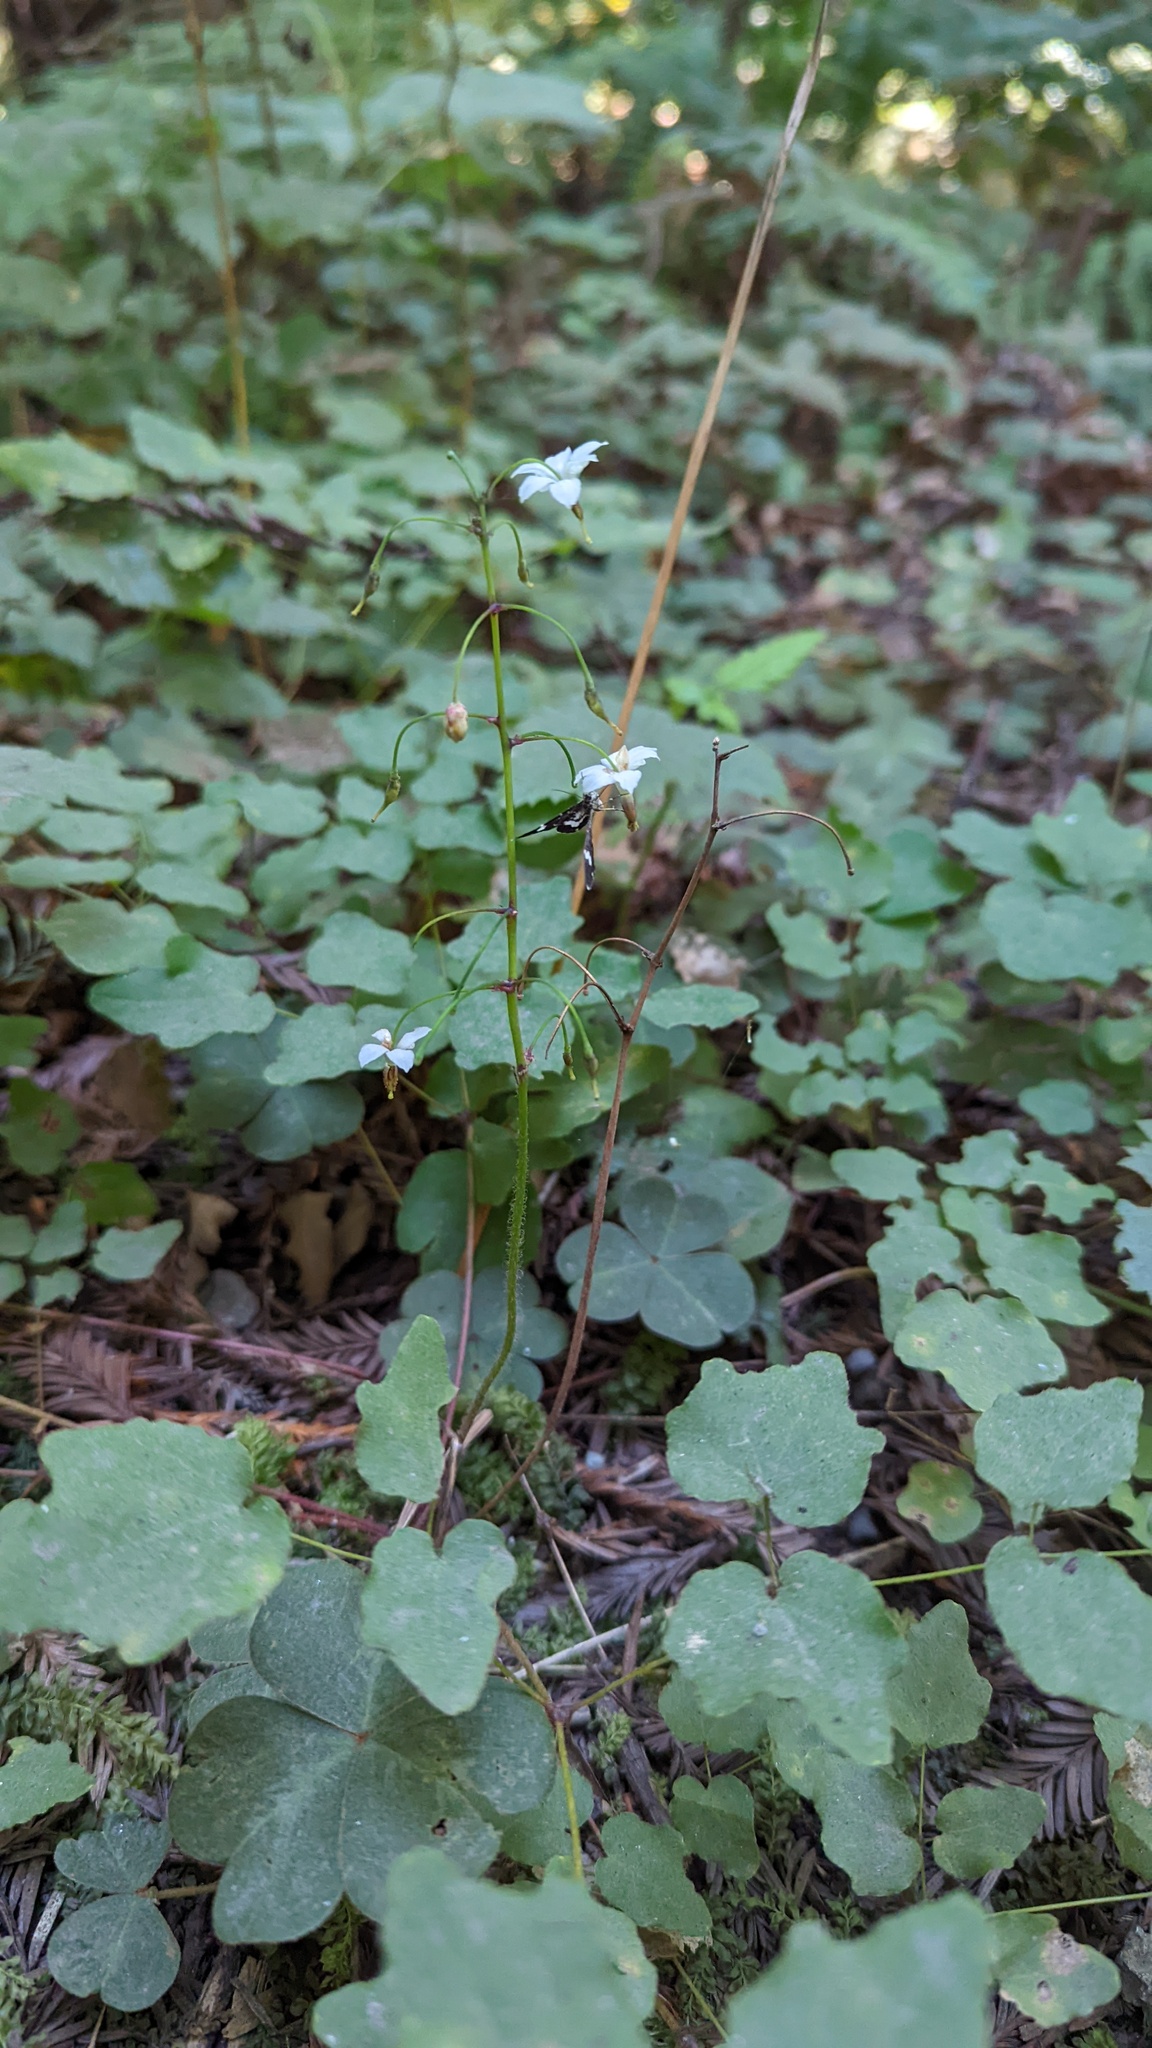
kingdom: Plantae
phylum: Tracheophyta
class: Magnoliopsida
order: Ranunculales
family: Berberidaceae
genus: Vancouveria
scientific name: Vancouveria hexandra
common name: Northern inside-out-flower
